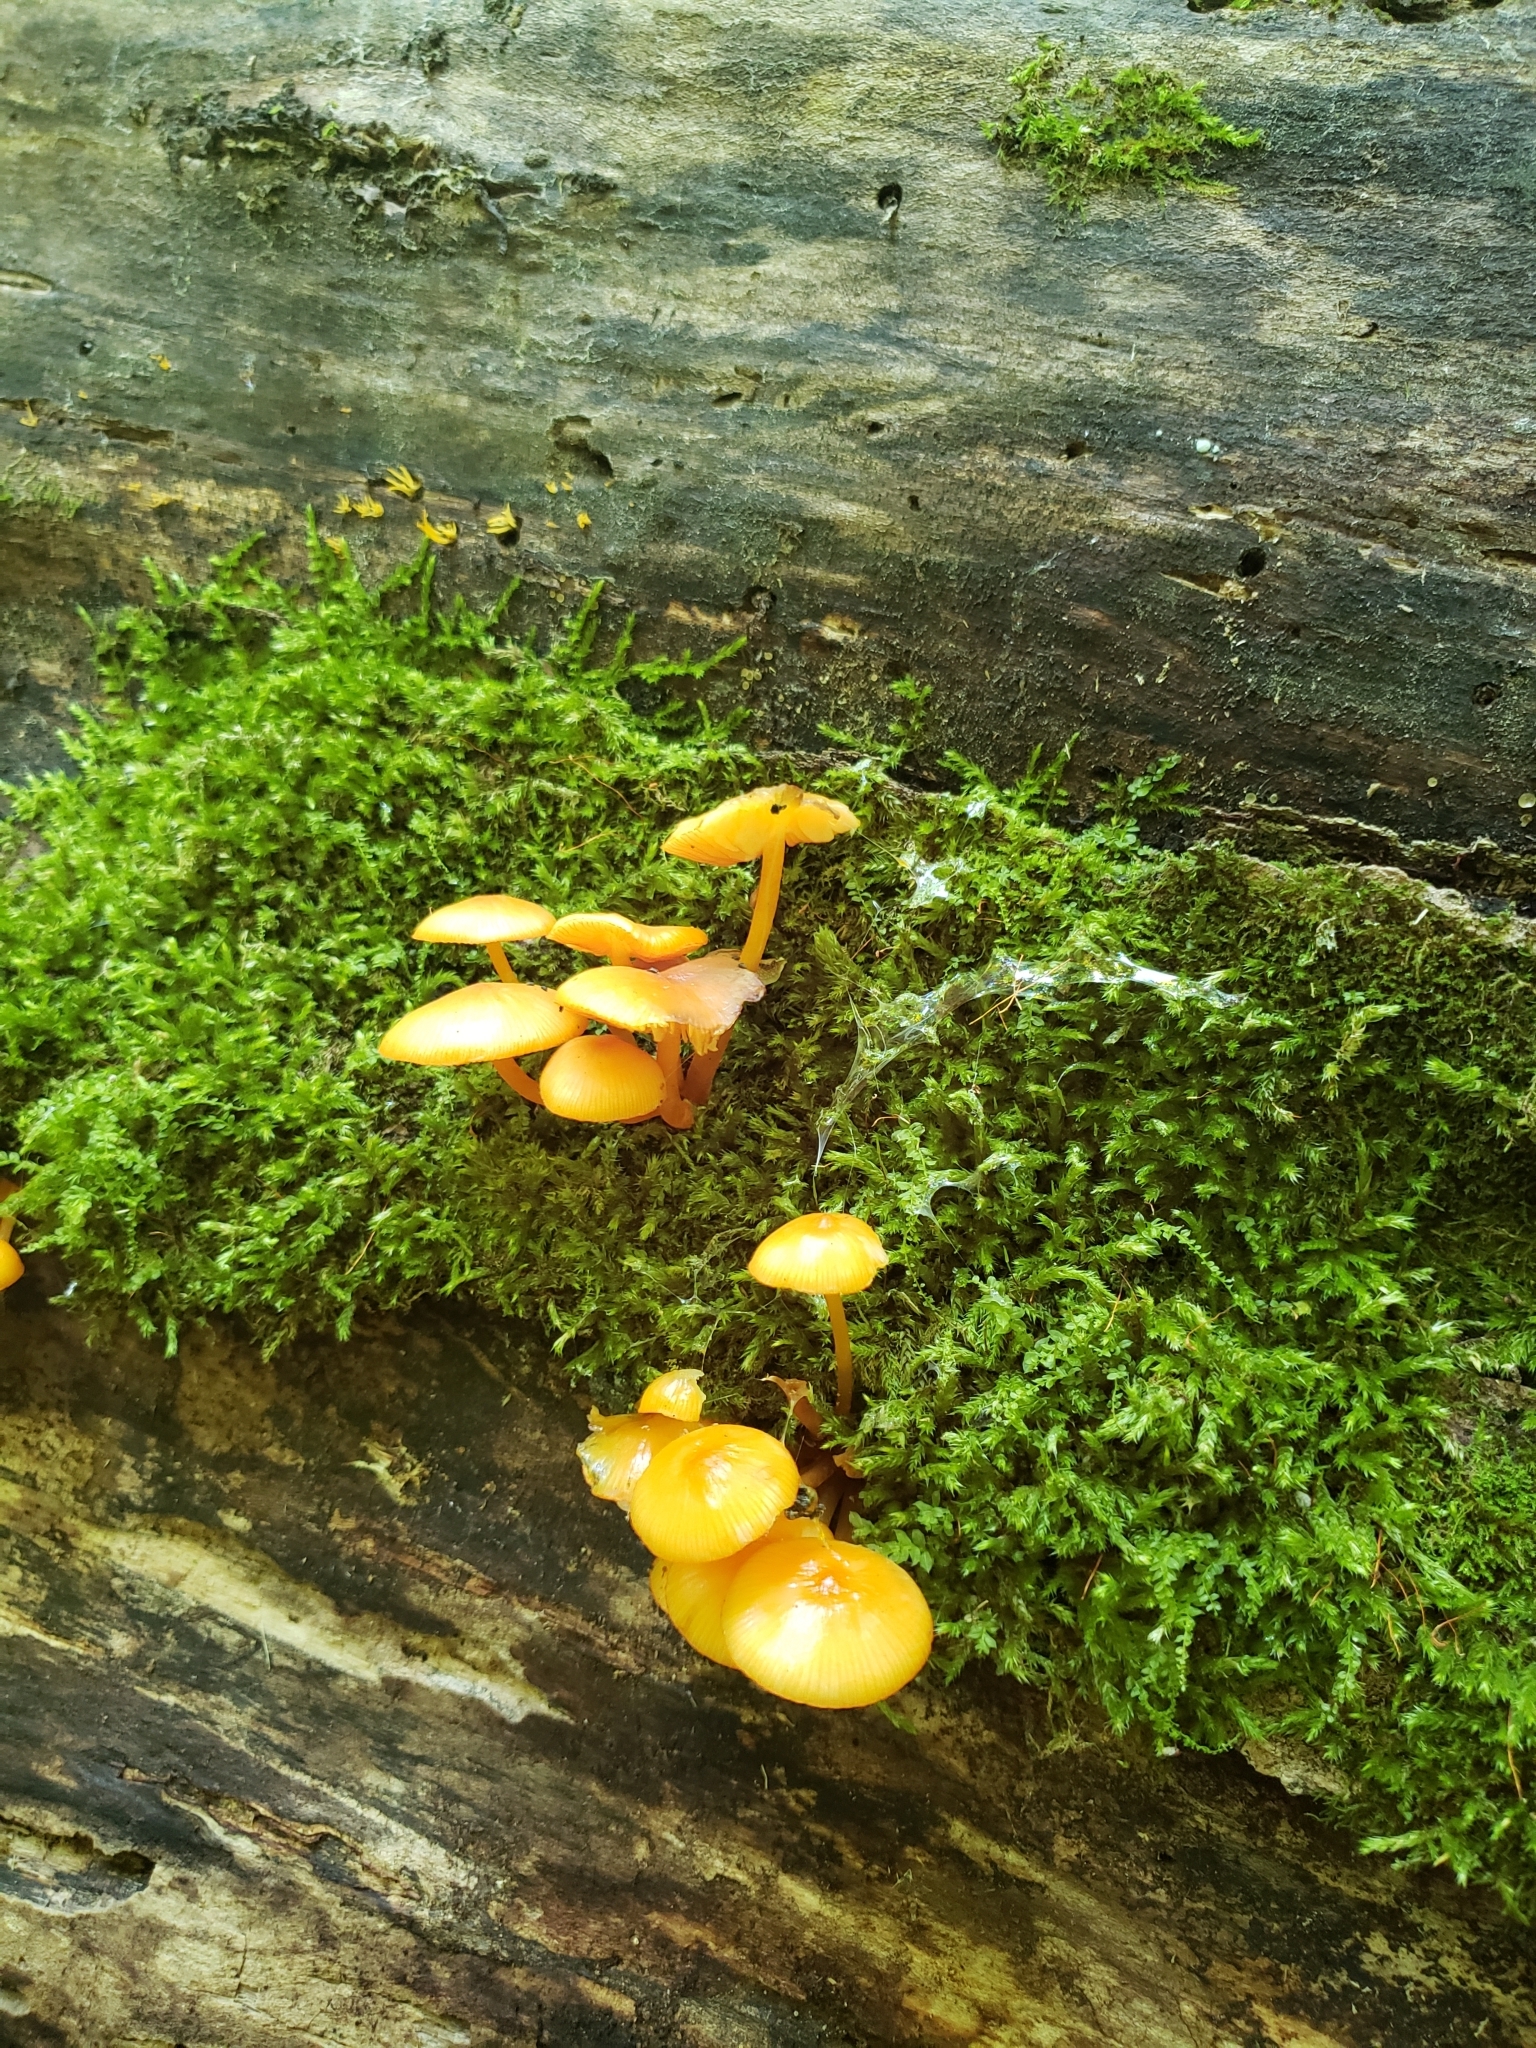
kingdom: Fungi
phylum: Basidiomycota
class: Agaricomycetes
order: Agaricales
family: Mycenaceae
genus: Mycena
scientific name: Mycena leaiana
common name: Orange mycena
